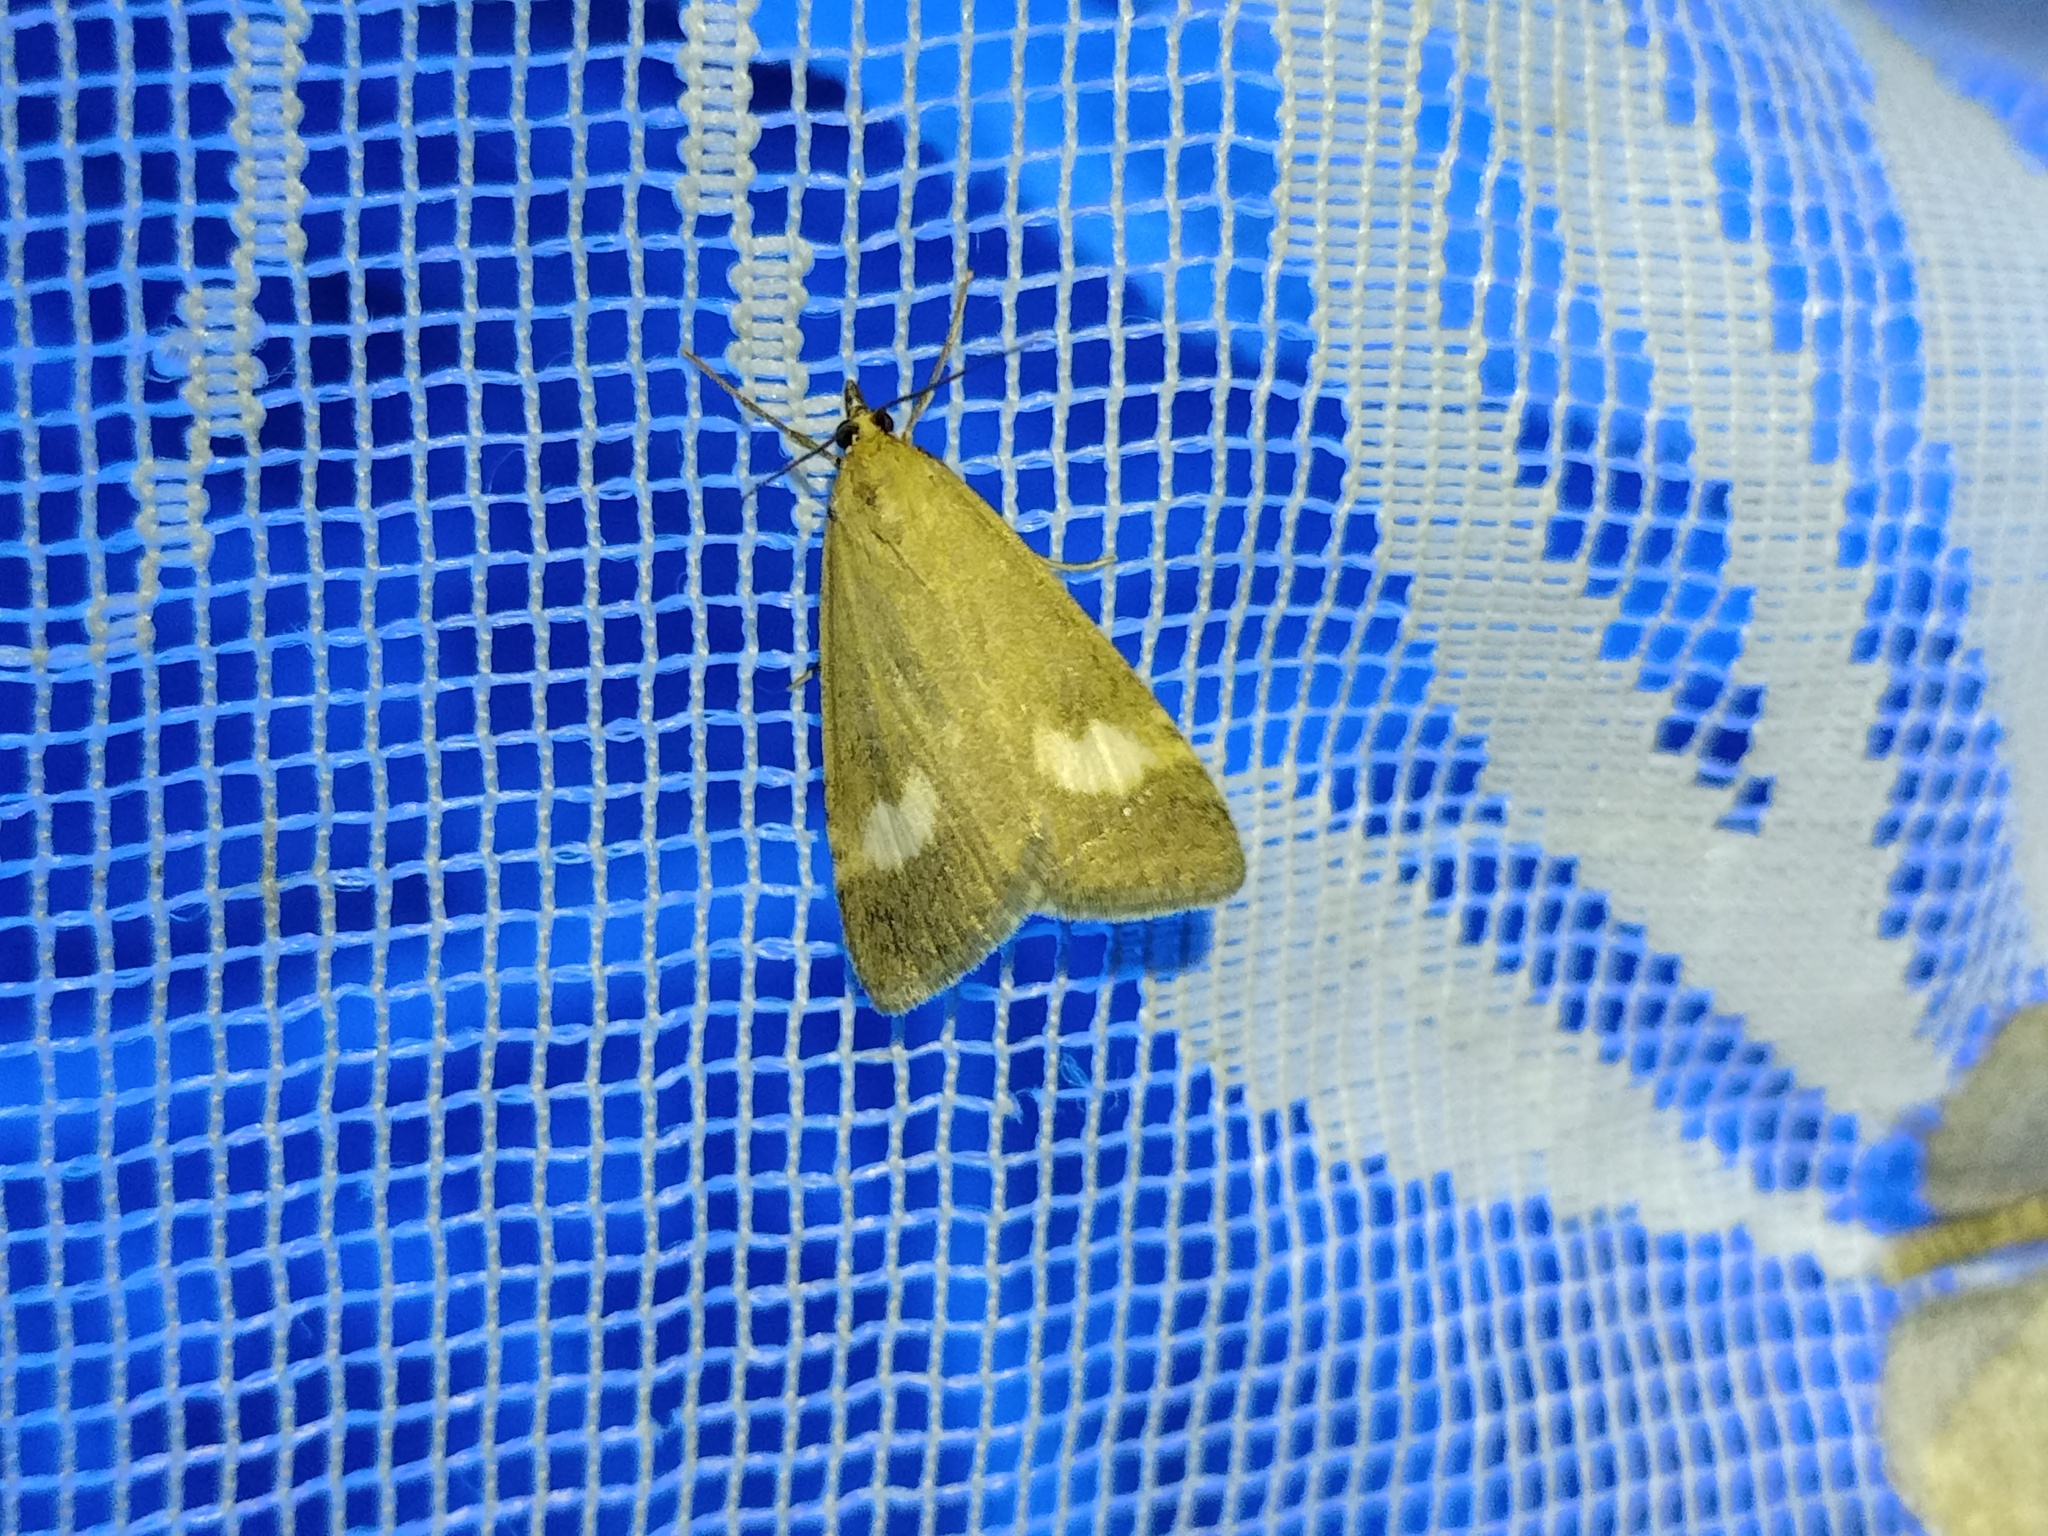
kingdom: Animalia
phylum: Arthropoda
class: Insecta
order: Lepidoptera
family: Crambidae
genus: Pyrausta
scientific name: Pyrausta alpinalis
